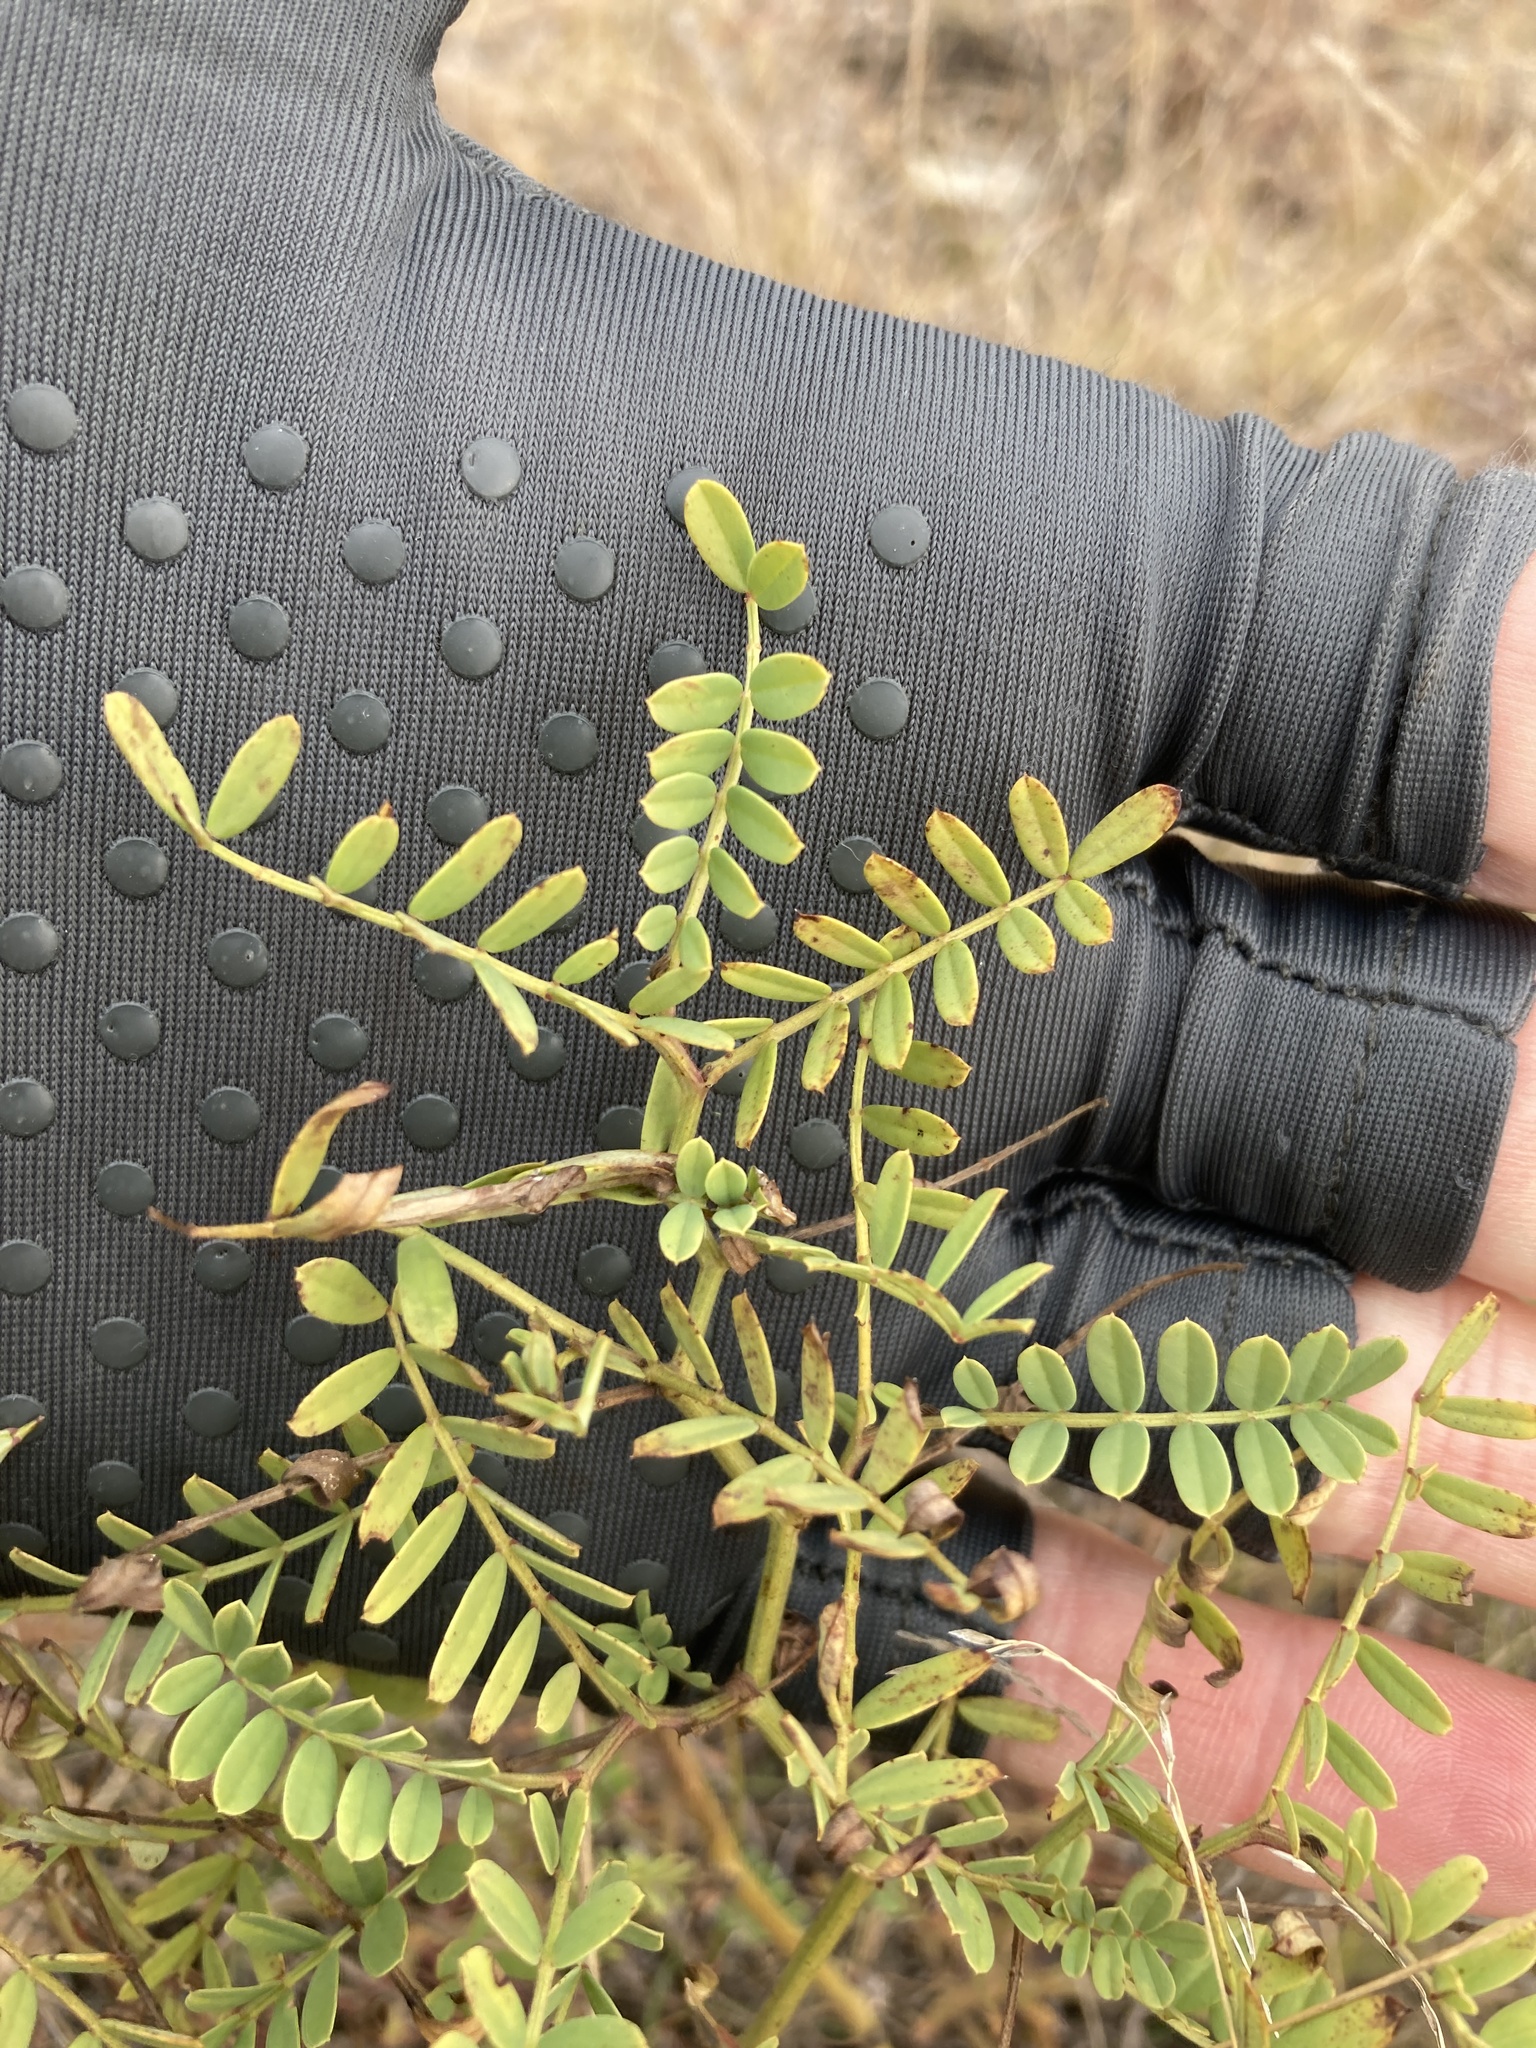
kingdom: Plantae
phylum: Tracheophyta
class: Magnoliopsida
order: Fabales
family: Fabaceae
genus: Coronilla
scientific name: Coronilla varia
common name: Crownvetch
